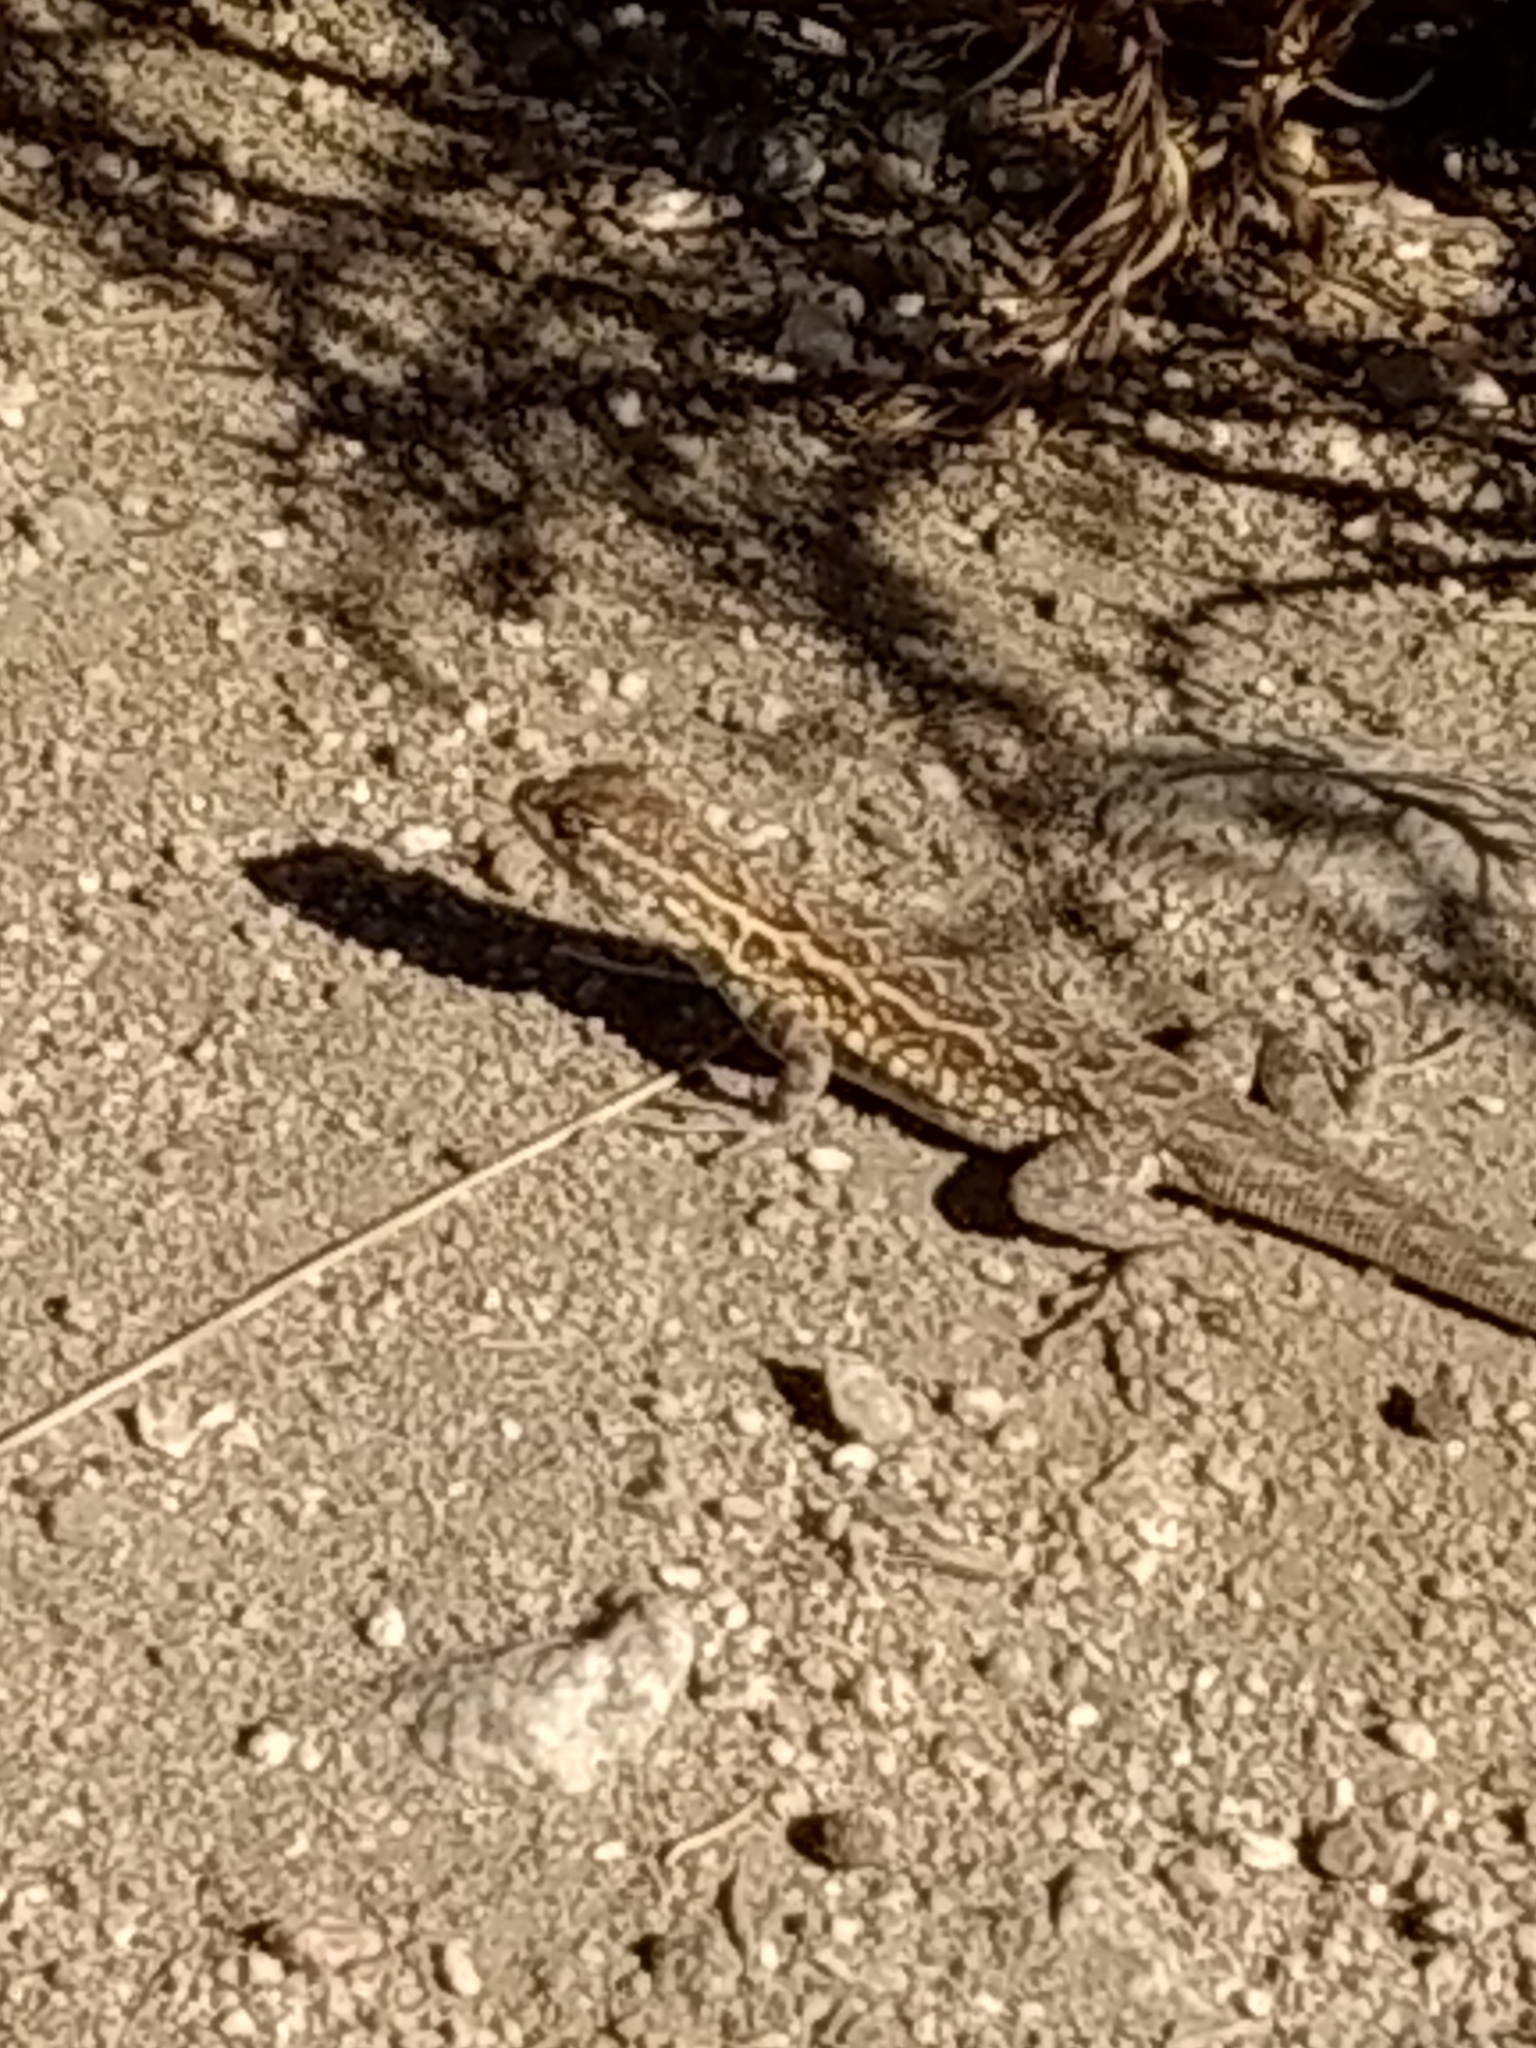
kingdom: Animalia
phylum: Chordata
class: Squamata
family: Phrynosomatidae
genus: Uta
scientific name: Uta stansburiana
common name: Side-blotched lizard
